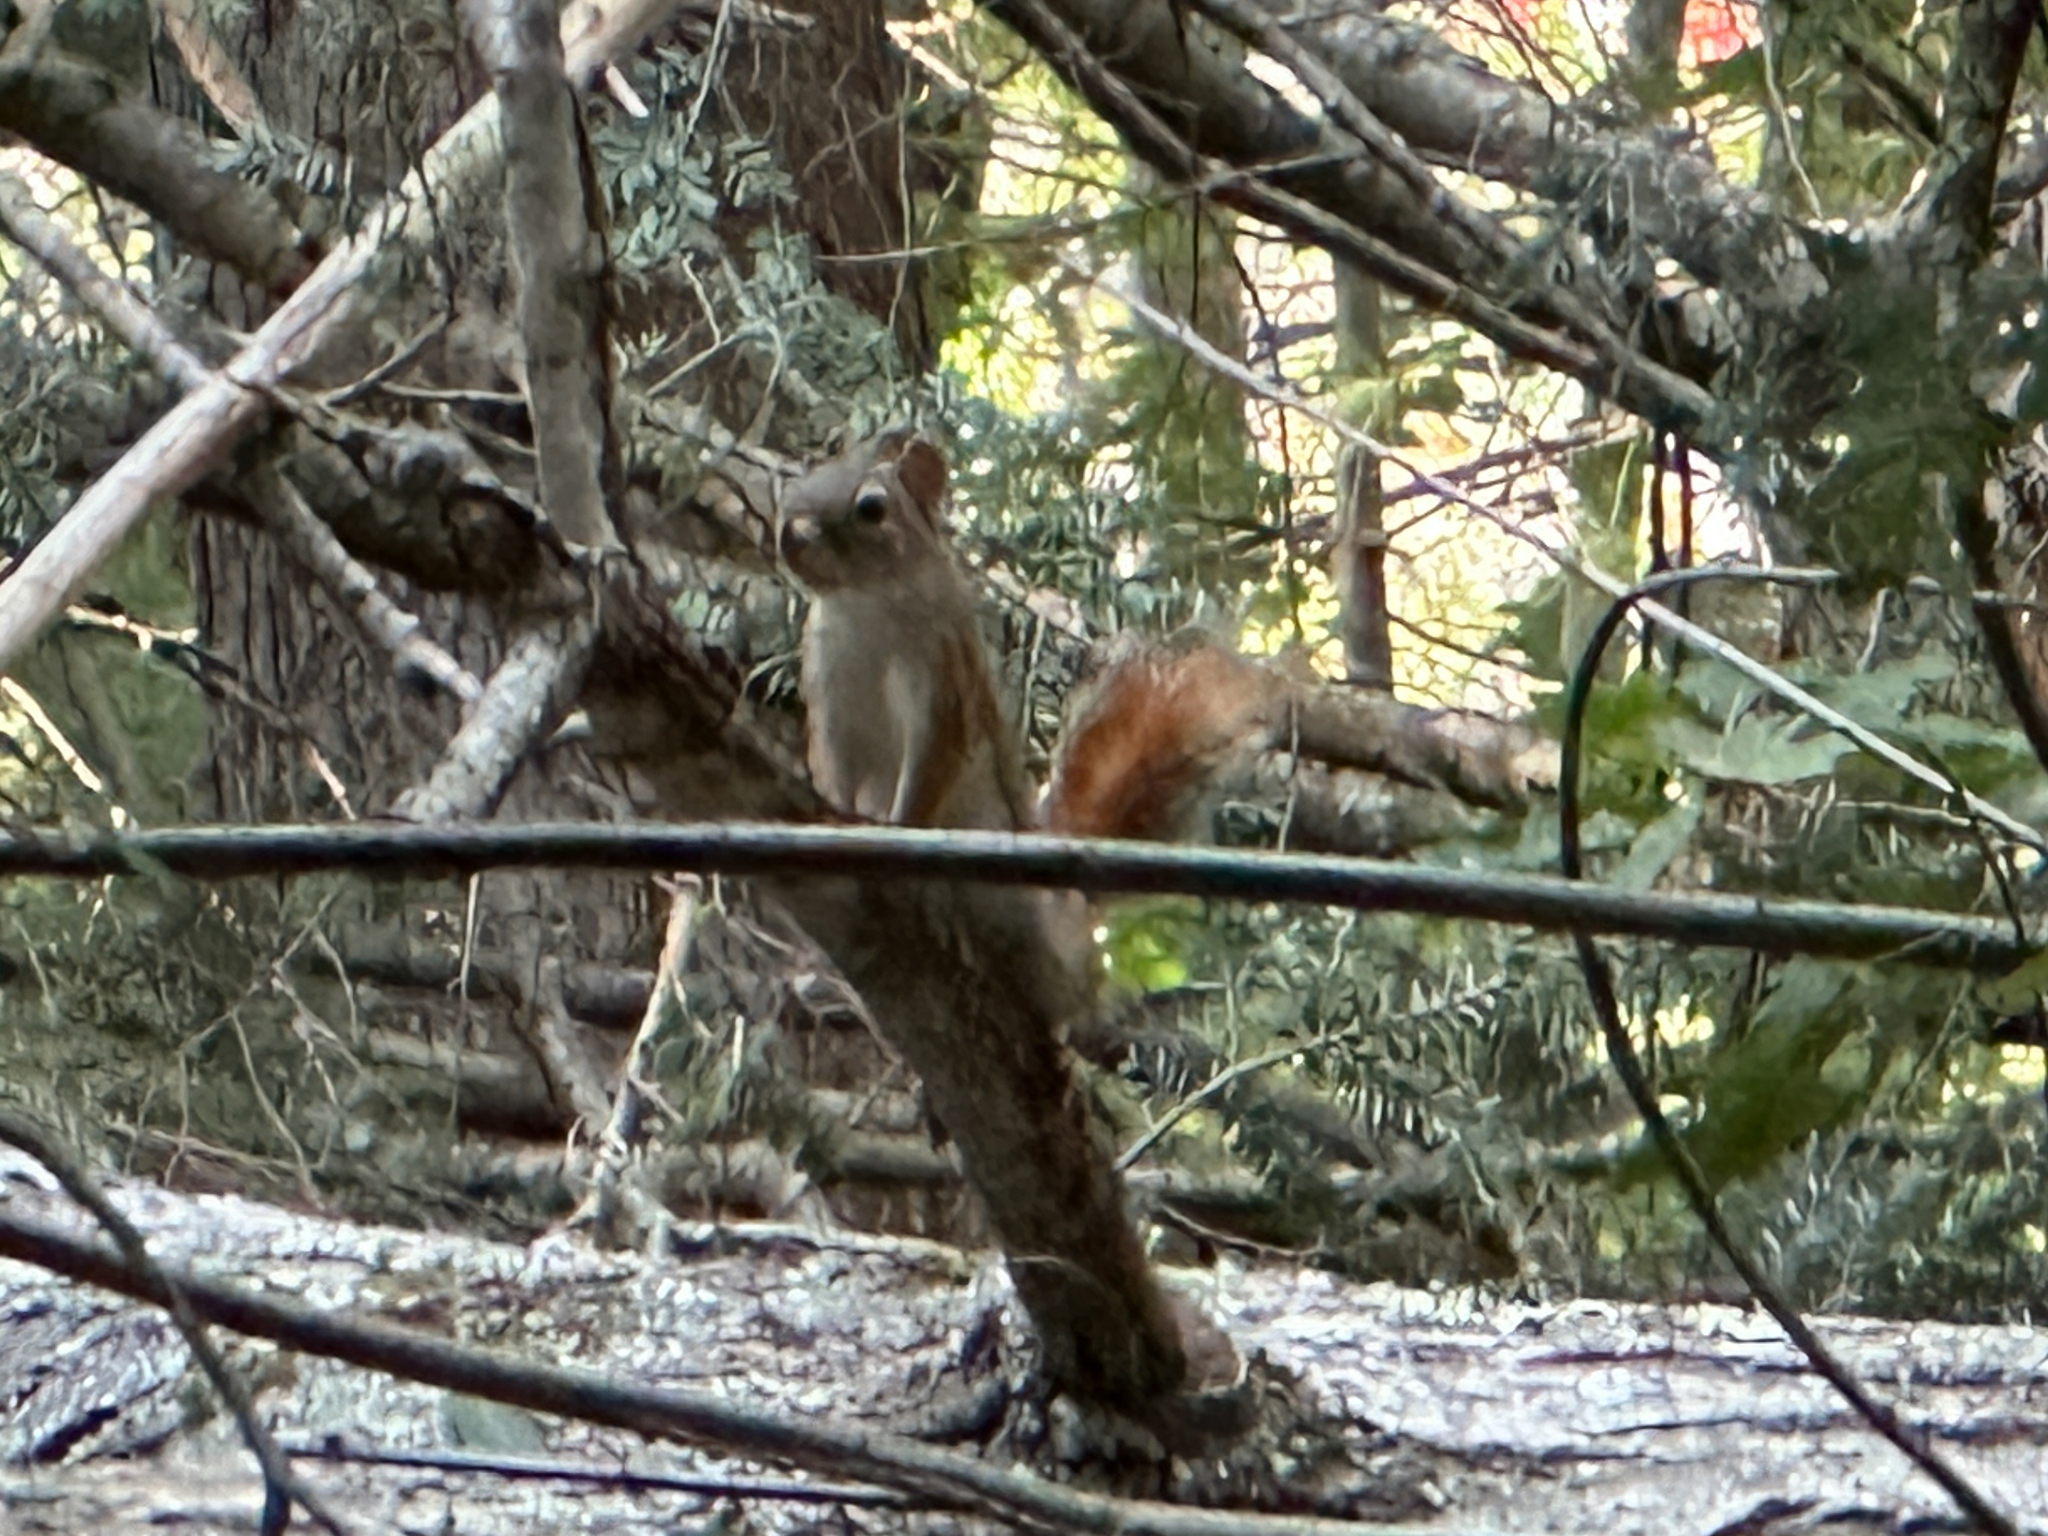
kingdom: Animalia
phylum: Chordata
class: Mammalia
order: Rodentia
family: Sciuridae
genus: Tamiasciurus
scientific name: Tamiasciurus hudsonicus
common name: Red squirrel
